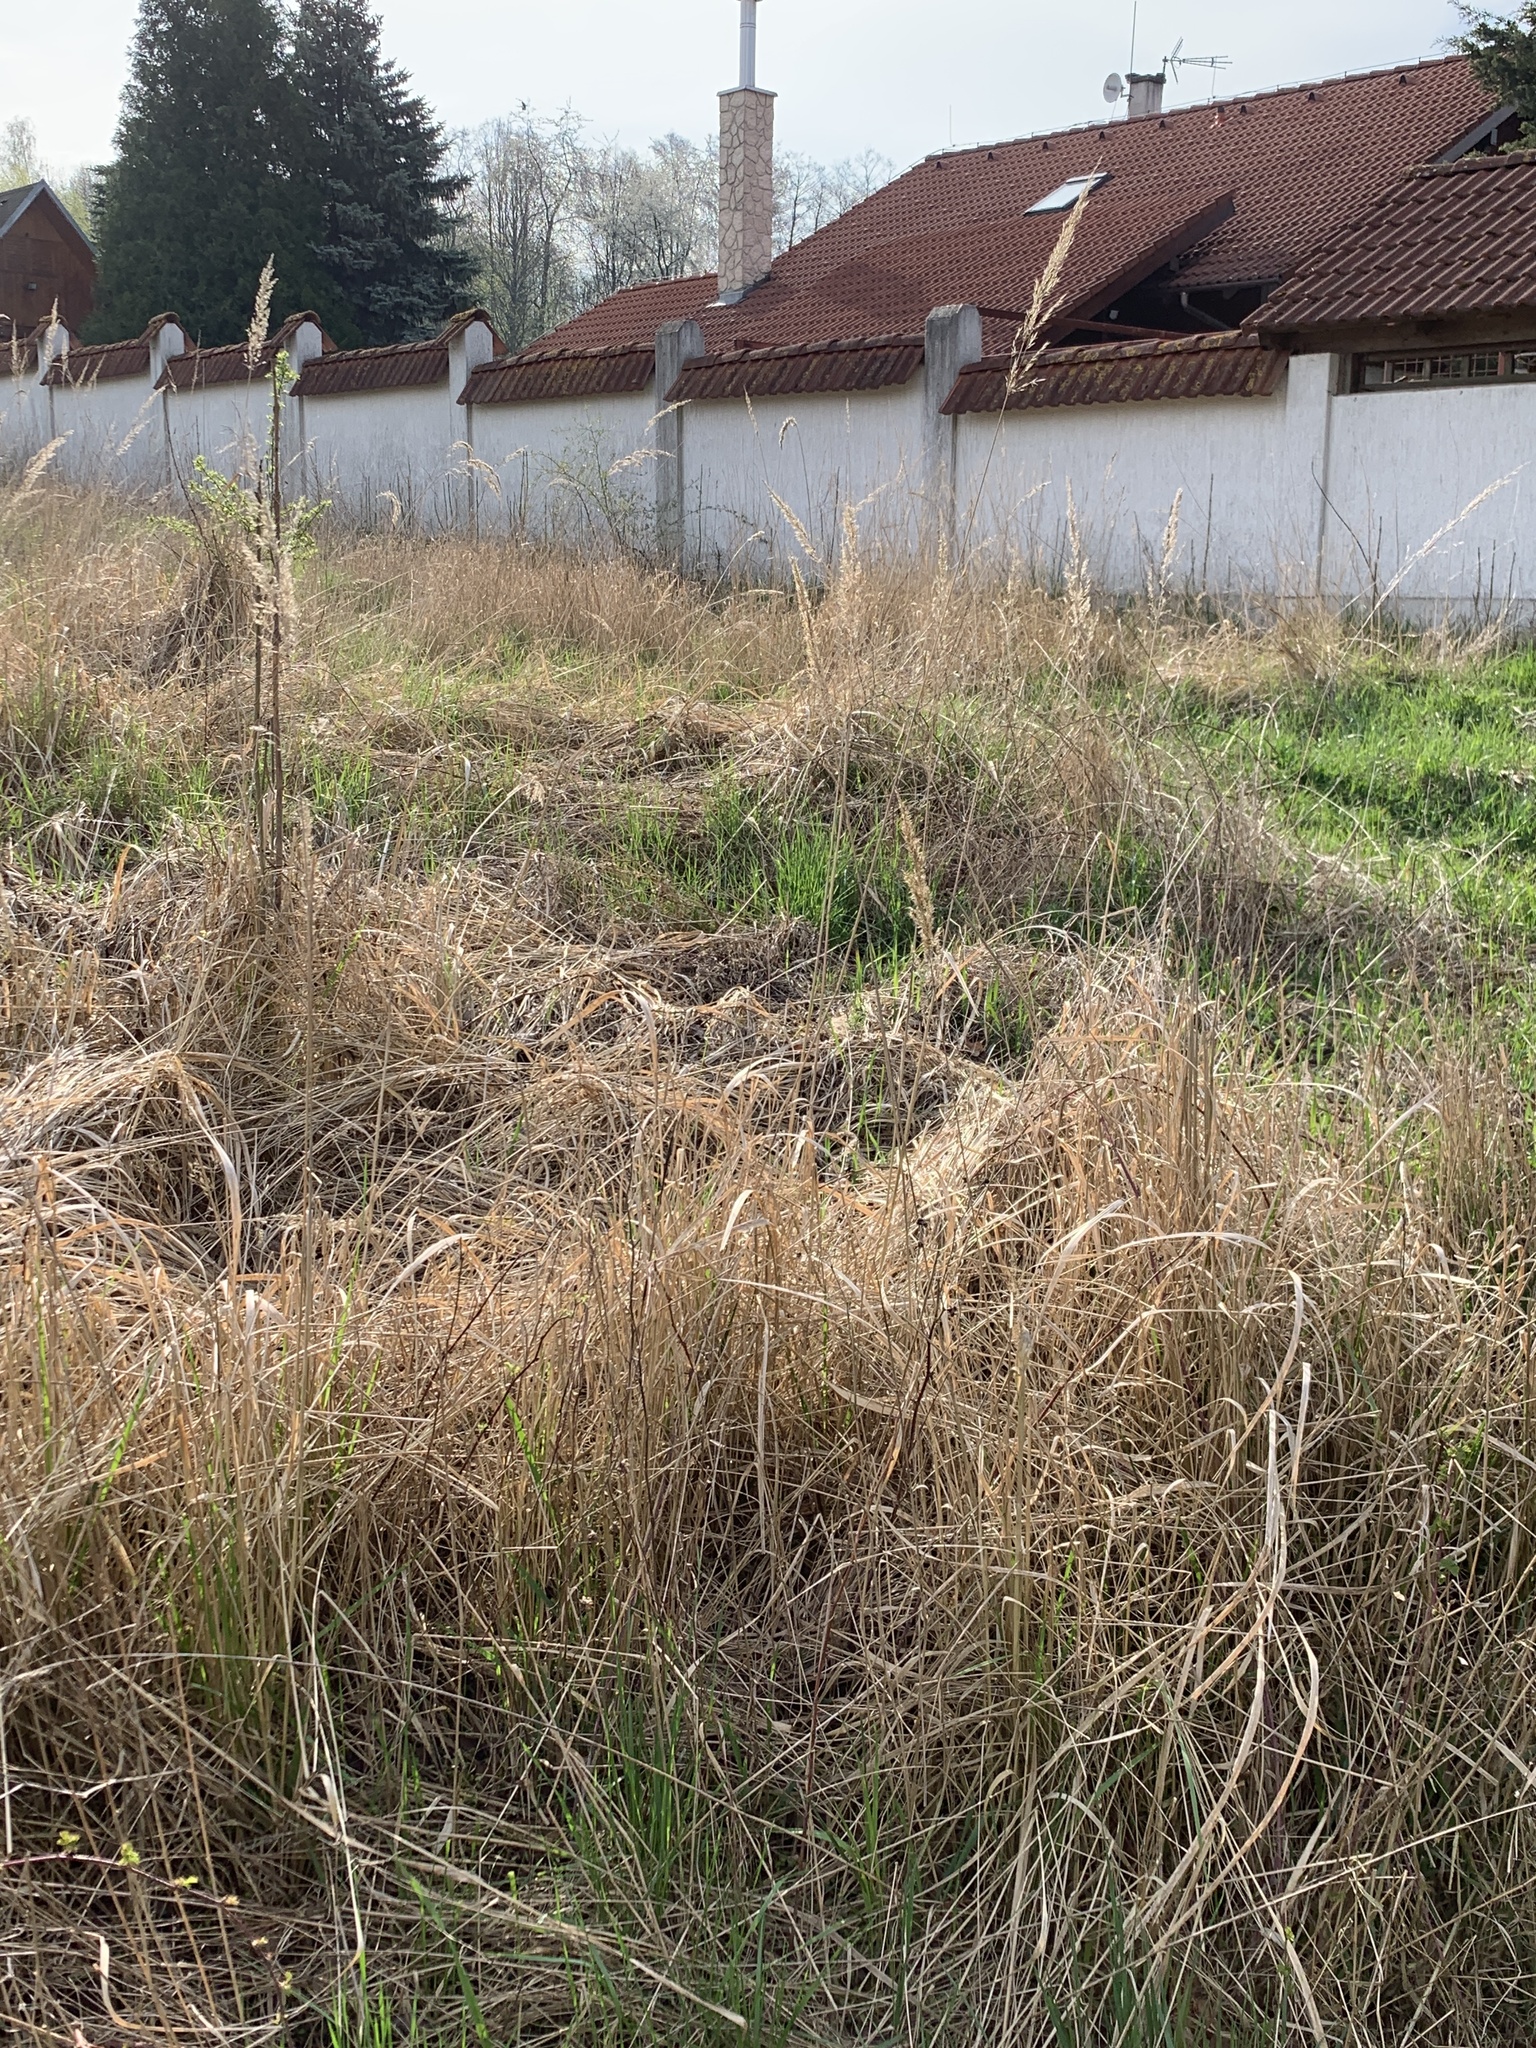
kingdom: Plantae
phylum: Tracheophyta
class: Liliopsida
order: Poales
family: Poaceae
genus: Calamagrostis
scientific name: Calamagrostis epigejos
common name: Wood small-reed
